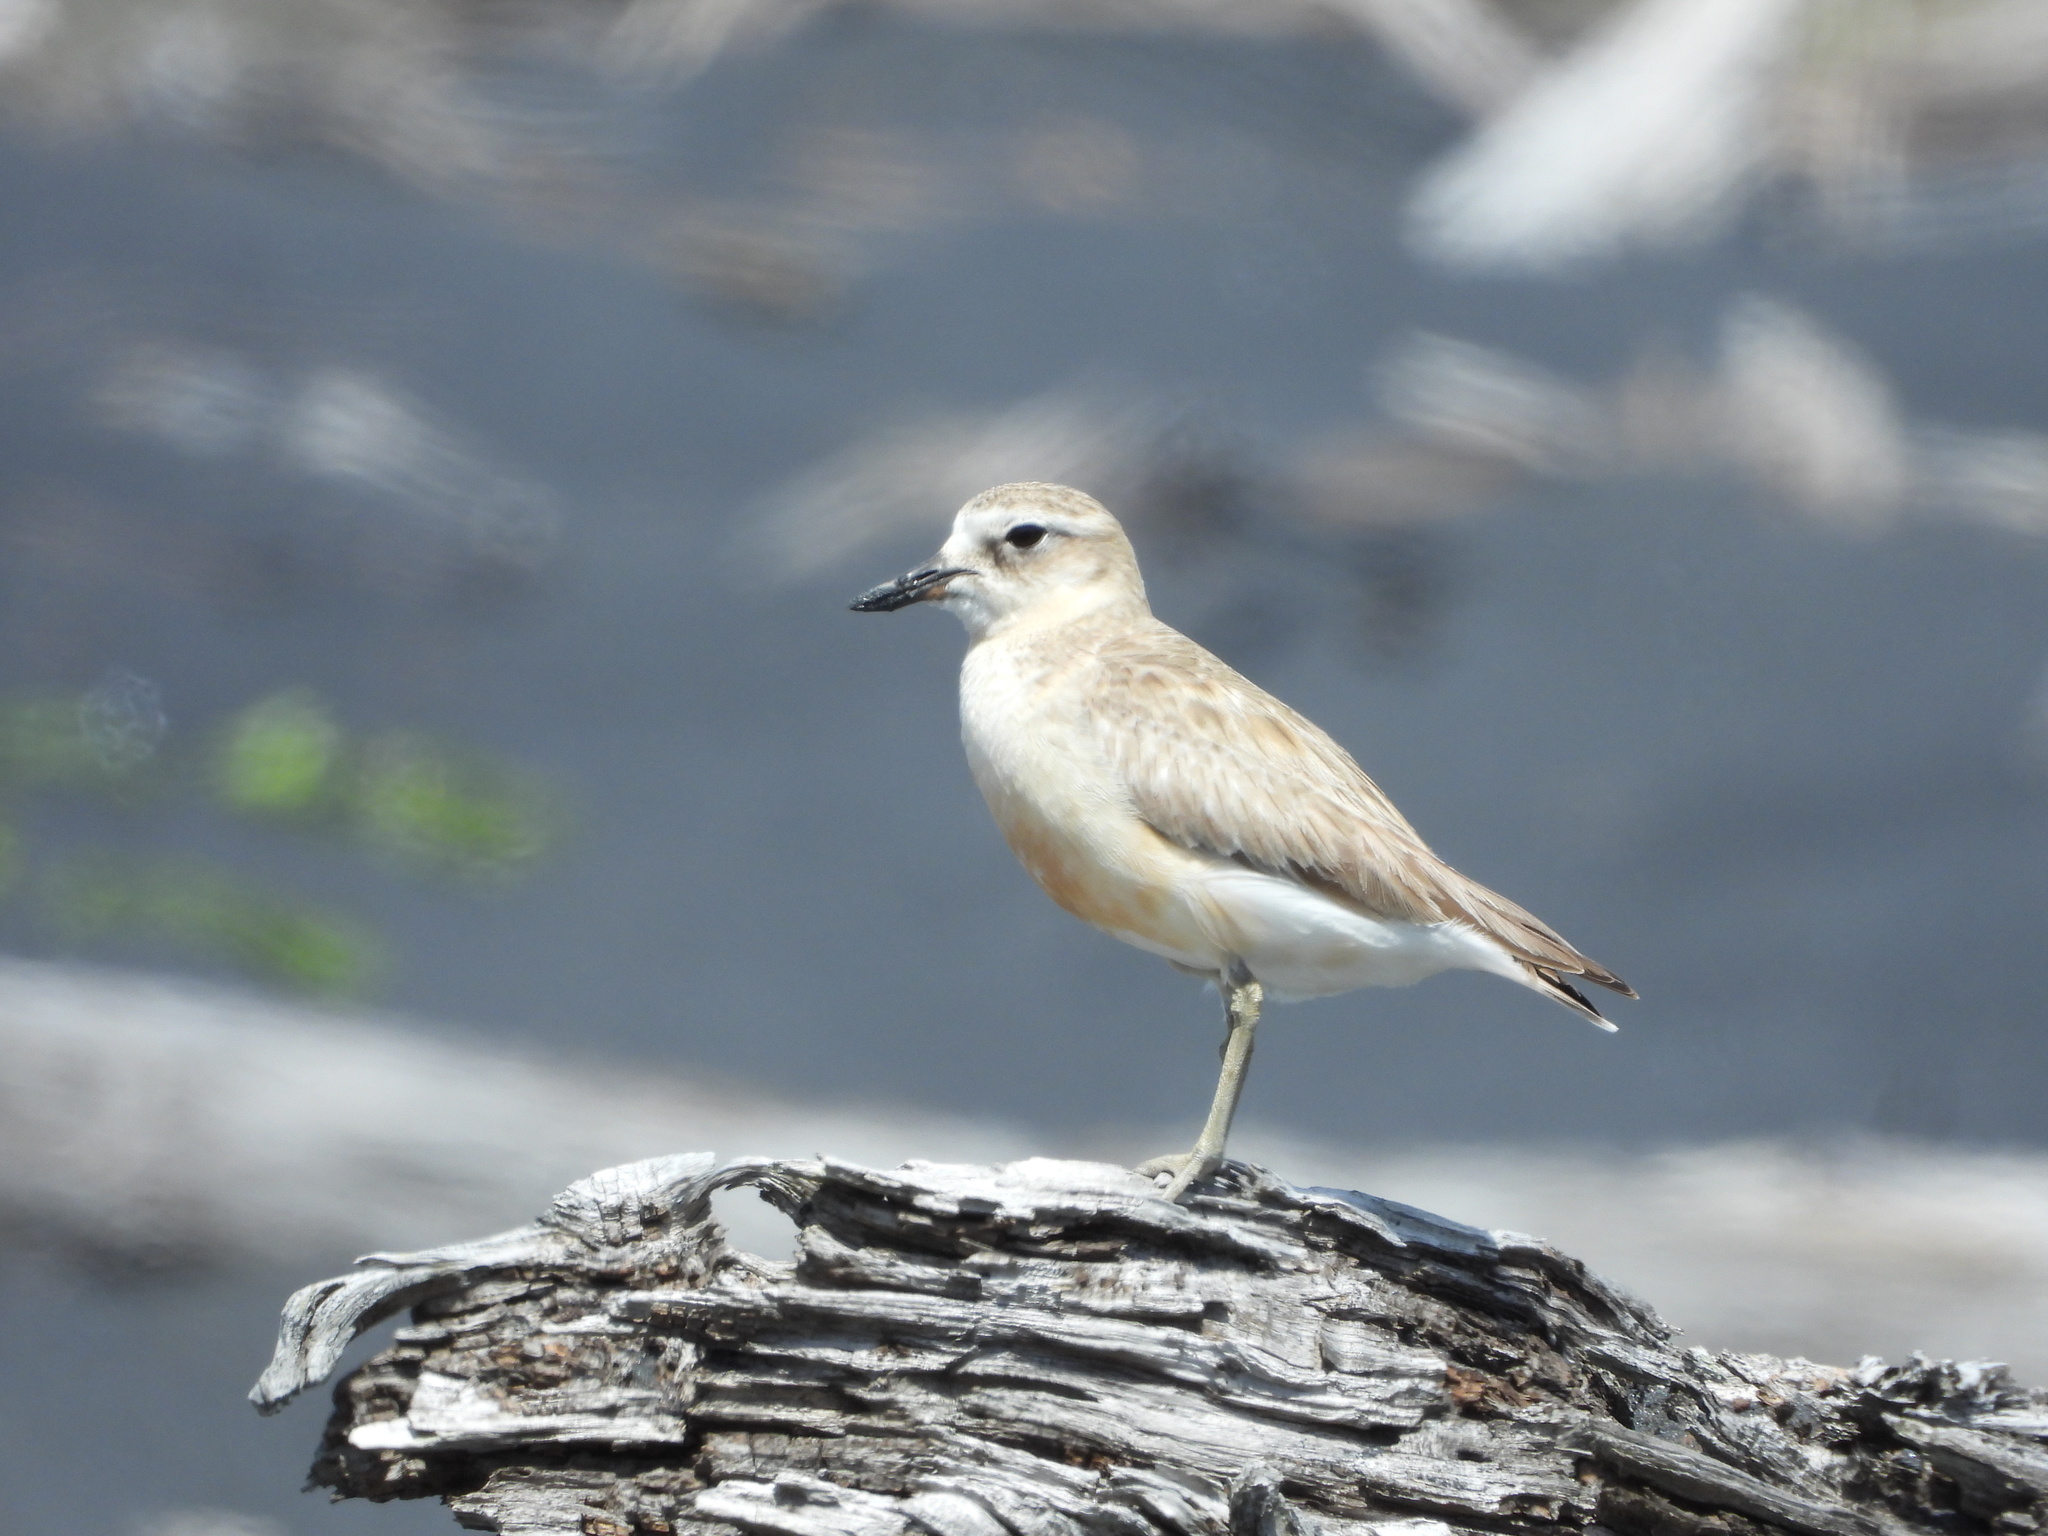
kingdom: Animalia
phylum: Chordata
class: Aves
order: Charadriiformes
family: Charadriidae
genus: Anarhynchus
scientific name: Anarhynchus
